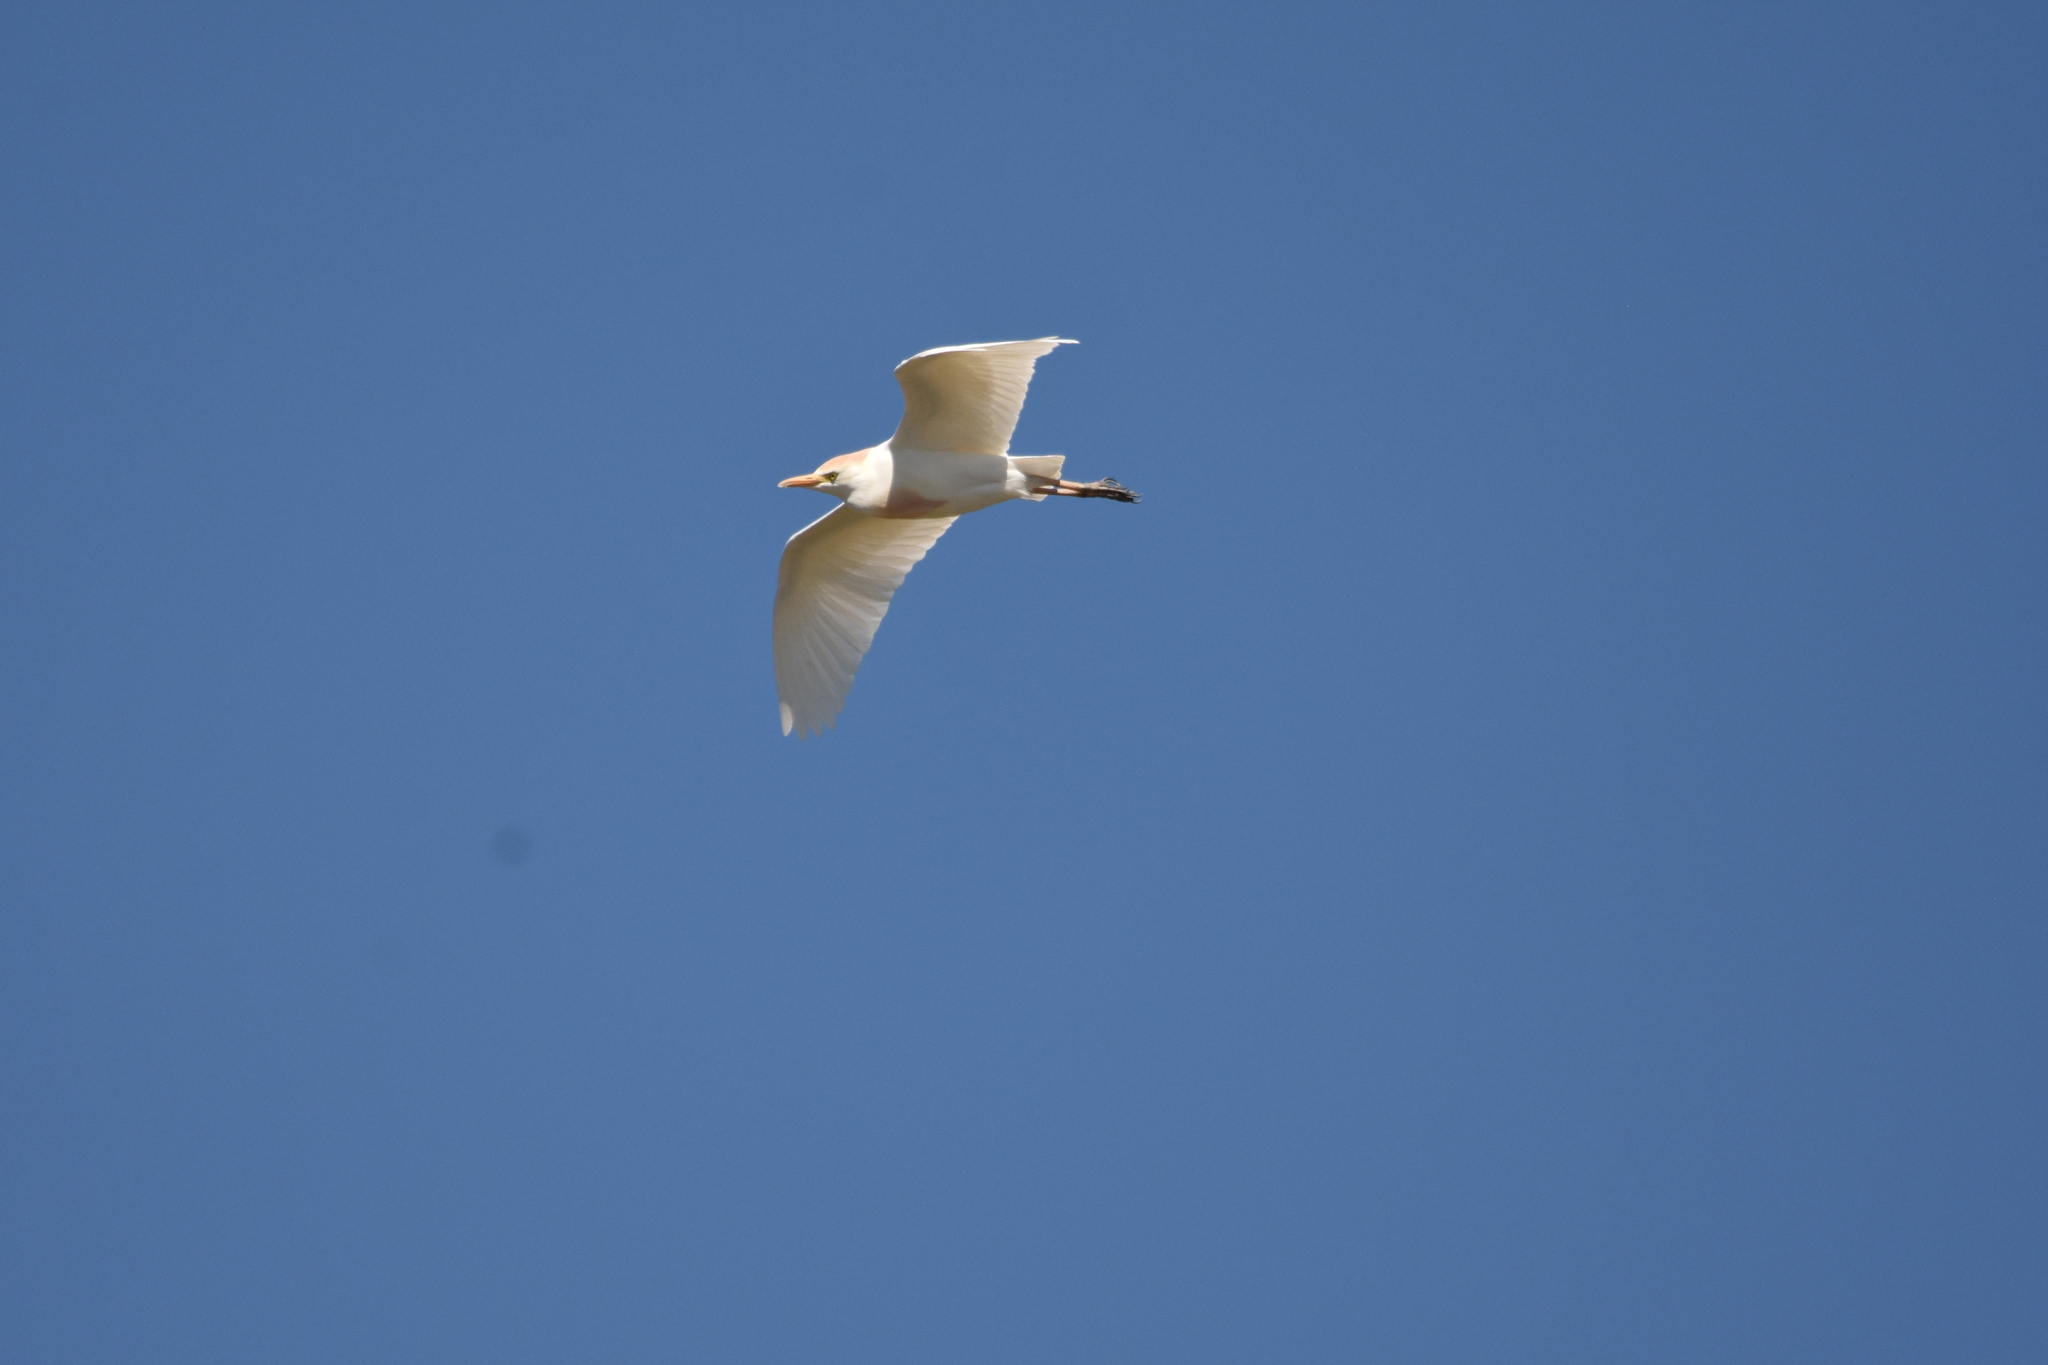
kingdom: Animalia
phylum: Chordata
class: Aves
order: Pelecaniformes
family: Ardeidae
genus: Bubulcus
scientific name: Bubulcus ibis
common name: Cattle egret
